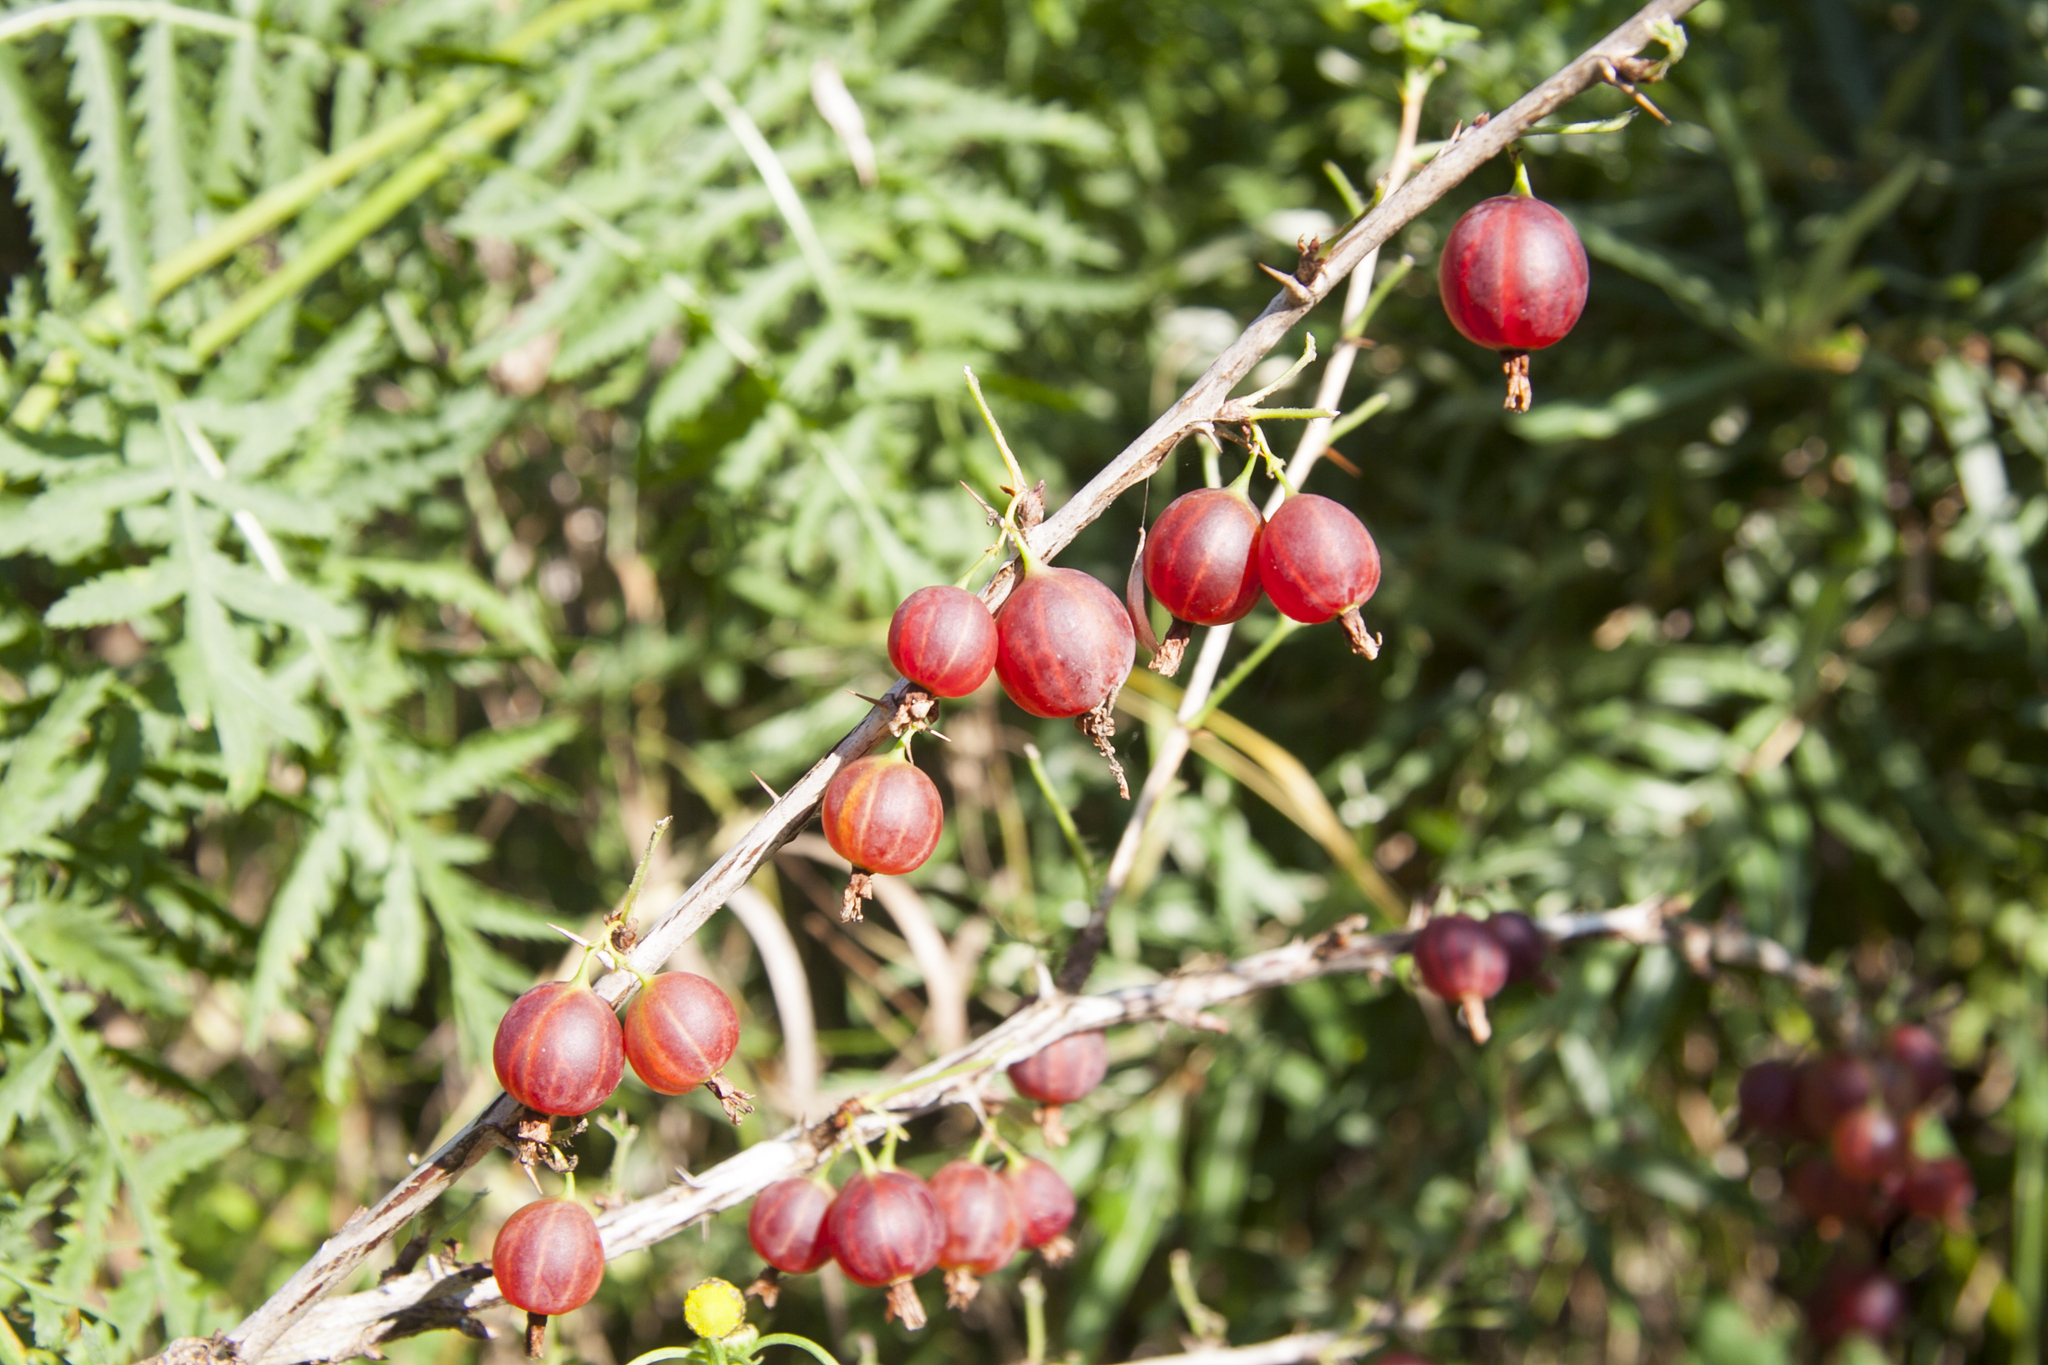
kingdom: Plantae
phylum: Tracheophyta
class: Magnoliopsida
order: Saxifragales
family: Grossulariaceae
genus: Ribes
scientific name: Ribes uva-crispa
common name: Gooseberry
